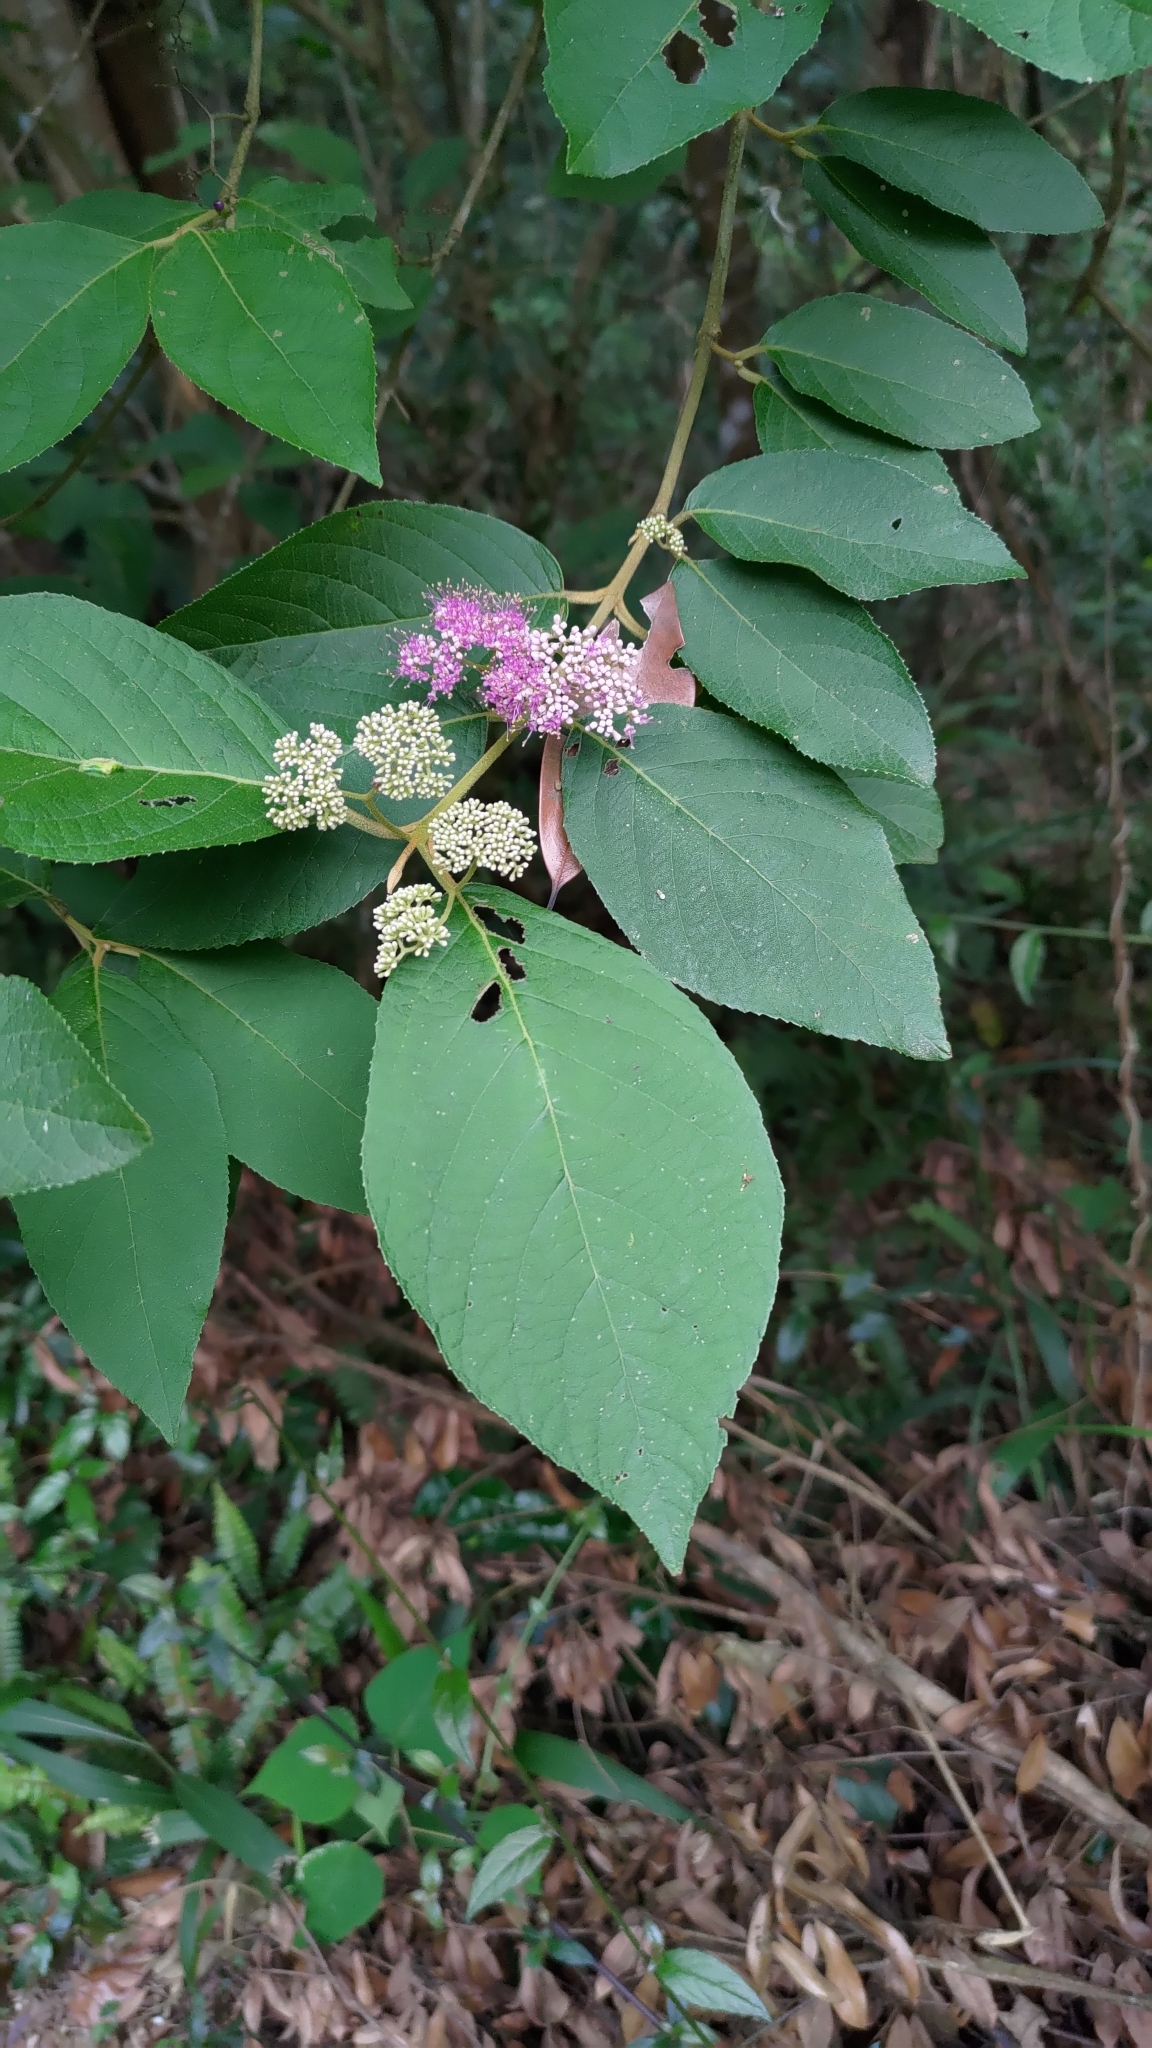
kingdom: Plantae
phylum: Tracheophyta
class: Magnoliopsida
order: Lamiales
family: Lamiaceae
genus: Callicarpa
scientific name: Callicarpa pedunculata
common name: Velvetleaf
